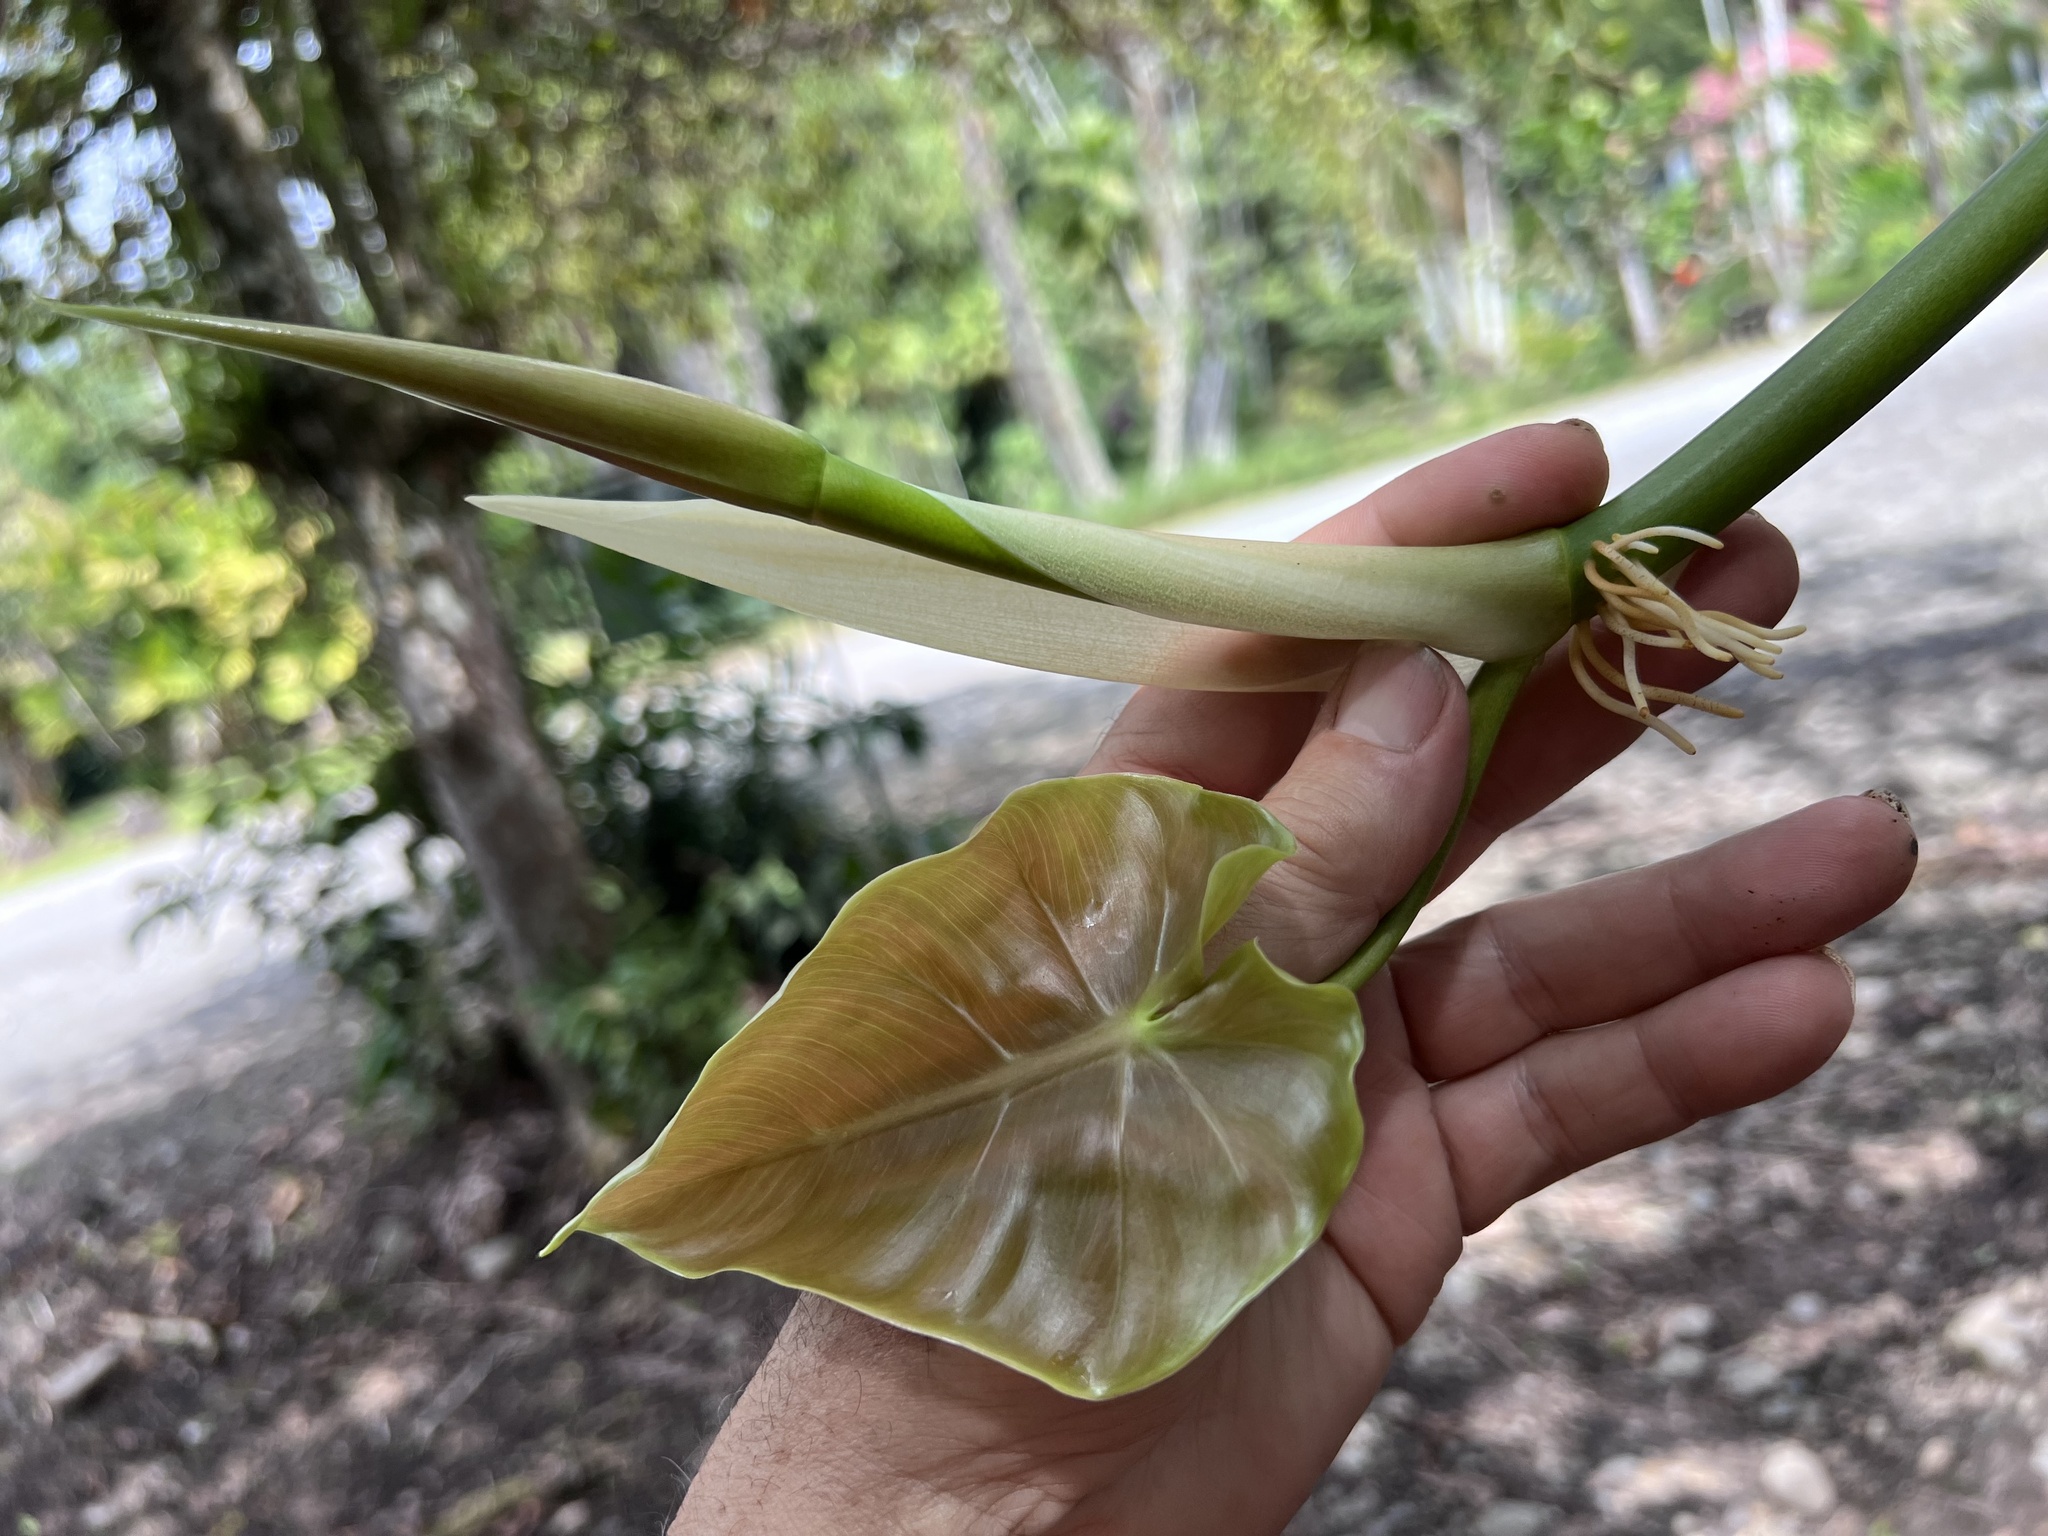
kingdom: Plantae
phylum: Tracheophyta
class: Liliopsida
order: Alismatales
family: Araceae
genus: Philodendron
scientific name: Philodendron hederaceum
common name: Vilevine
